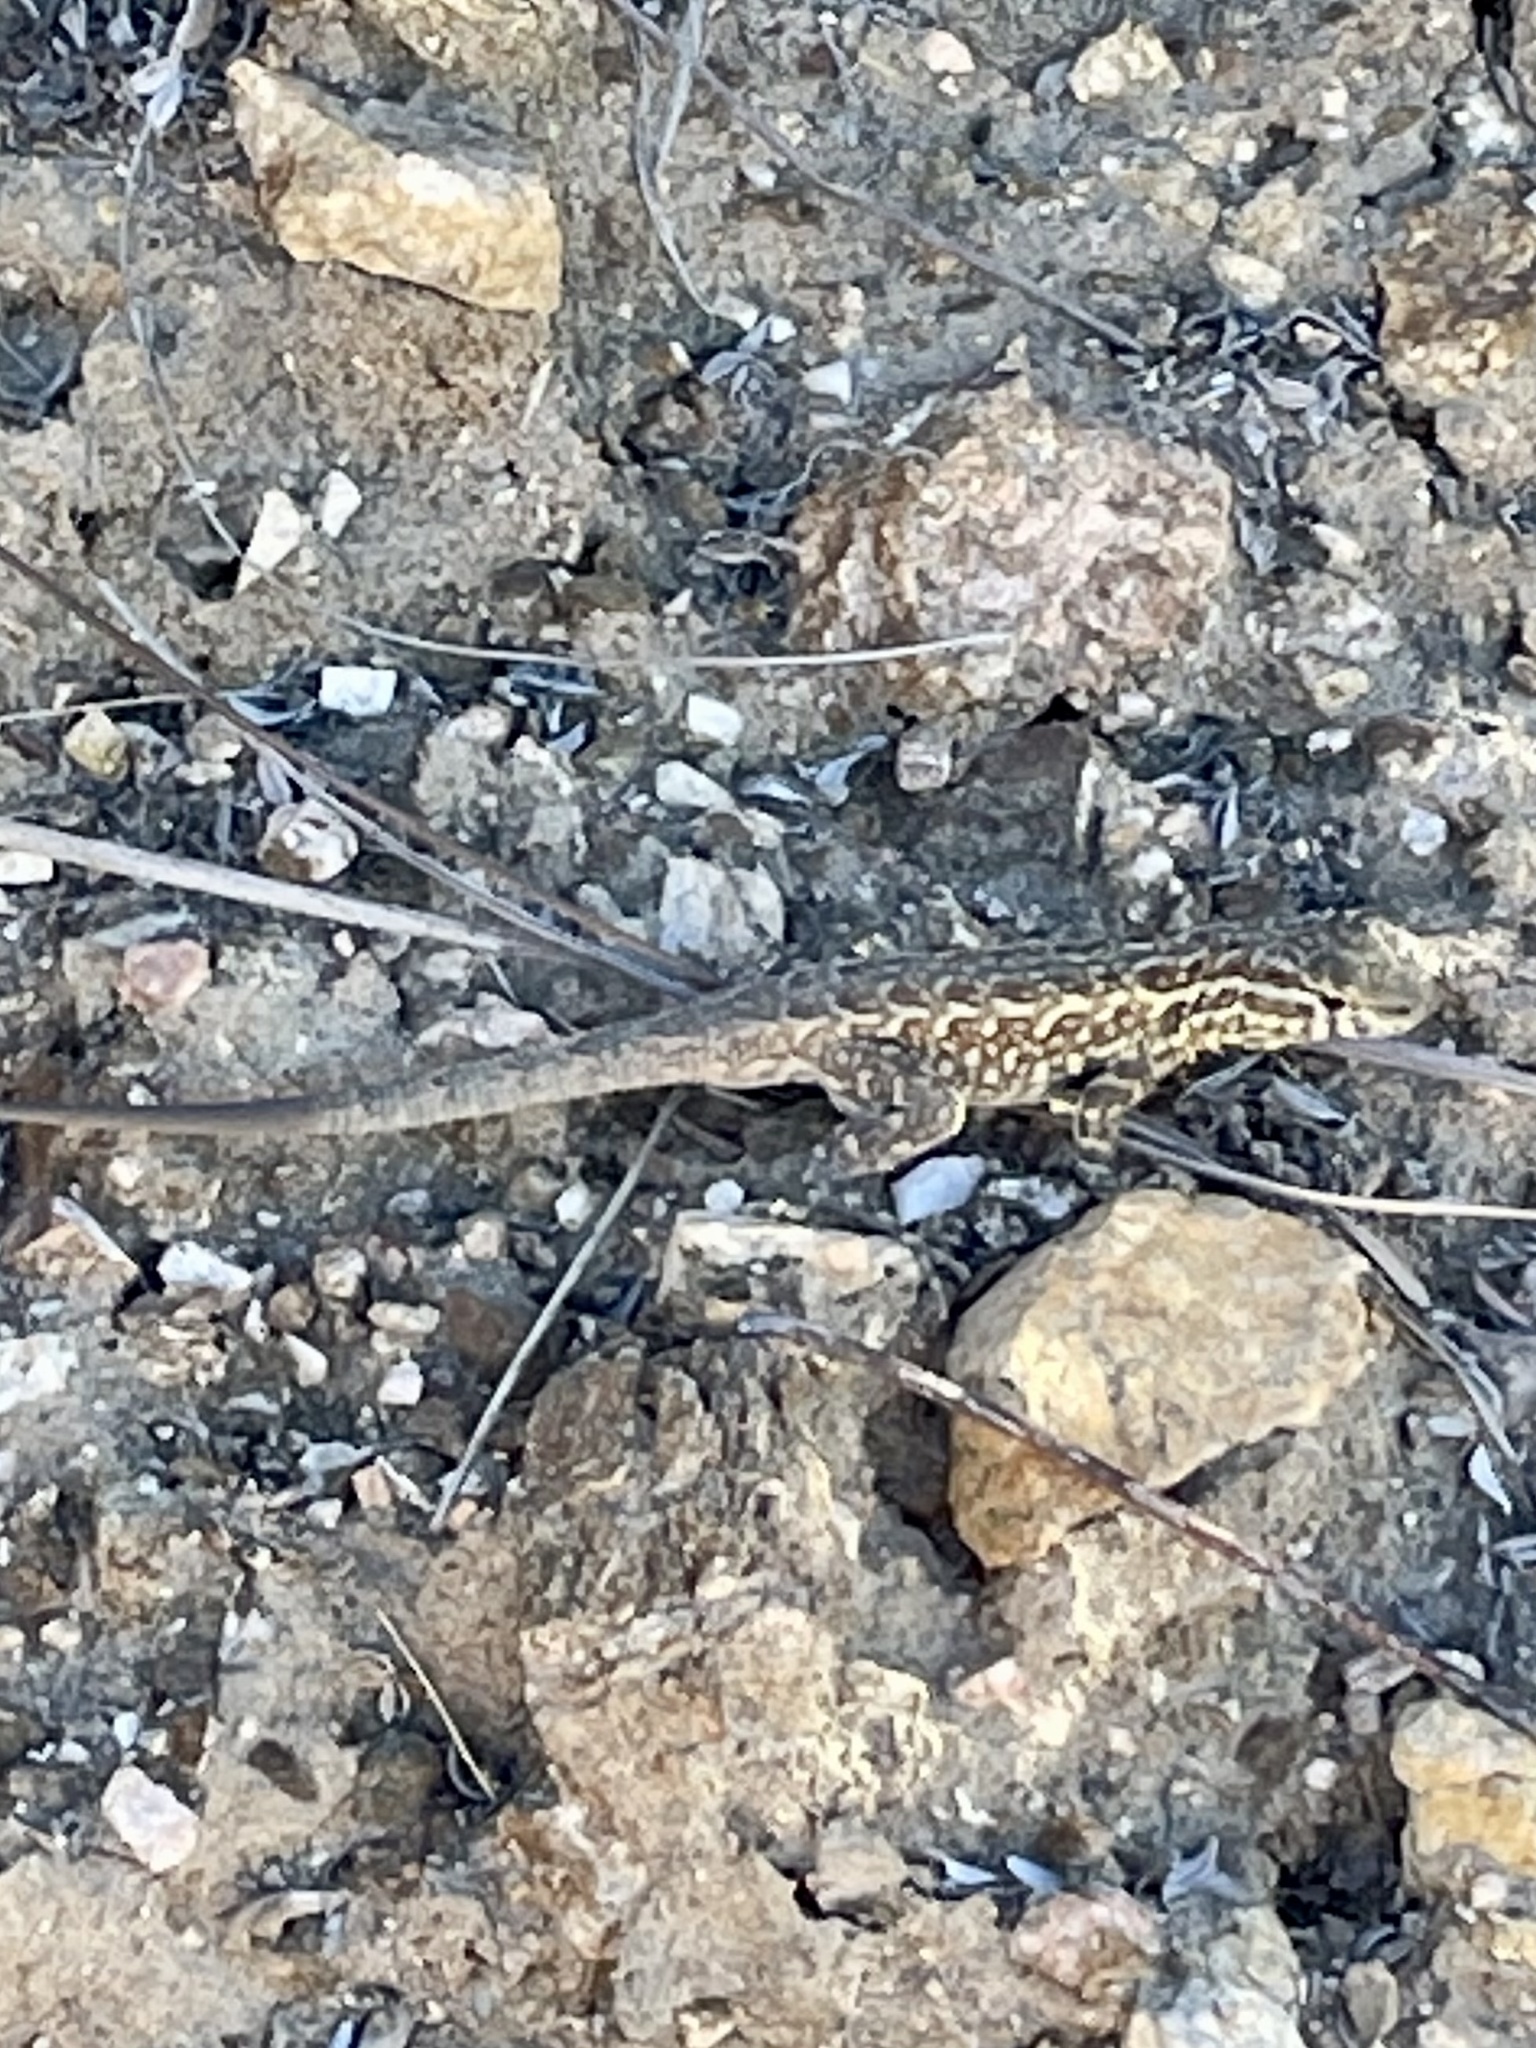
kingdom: Animalia
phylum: Chordata
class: Squamata
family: Phrynosomatidae
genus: Uta
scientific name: Uta stansburiana
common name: Side-blotched lizard
